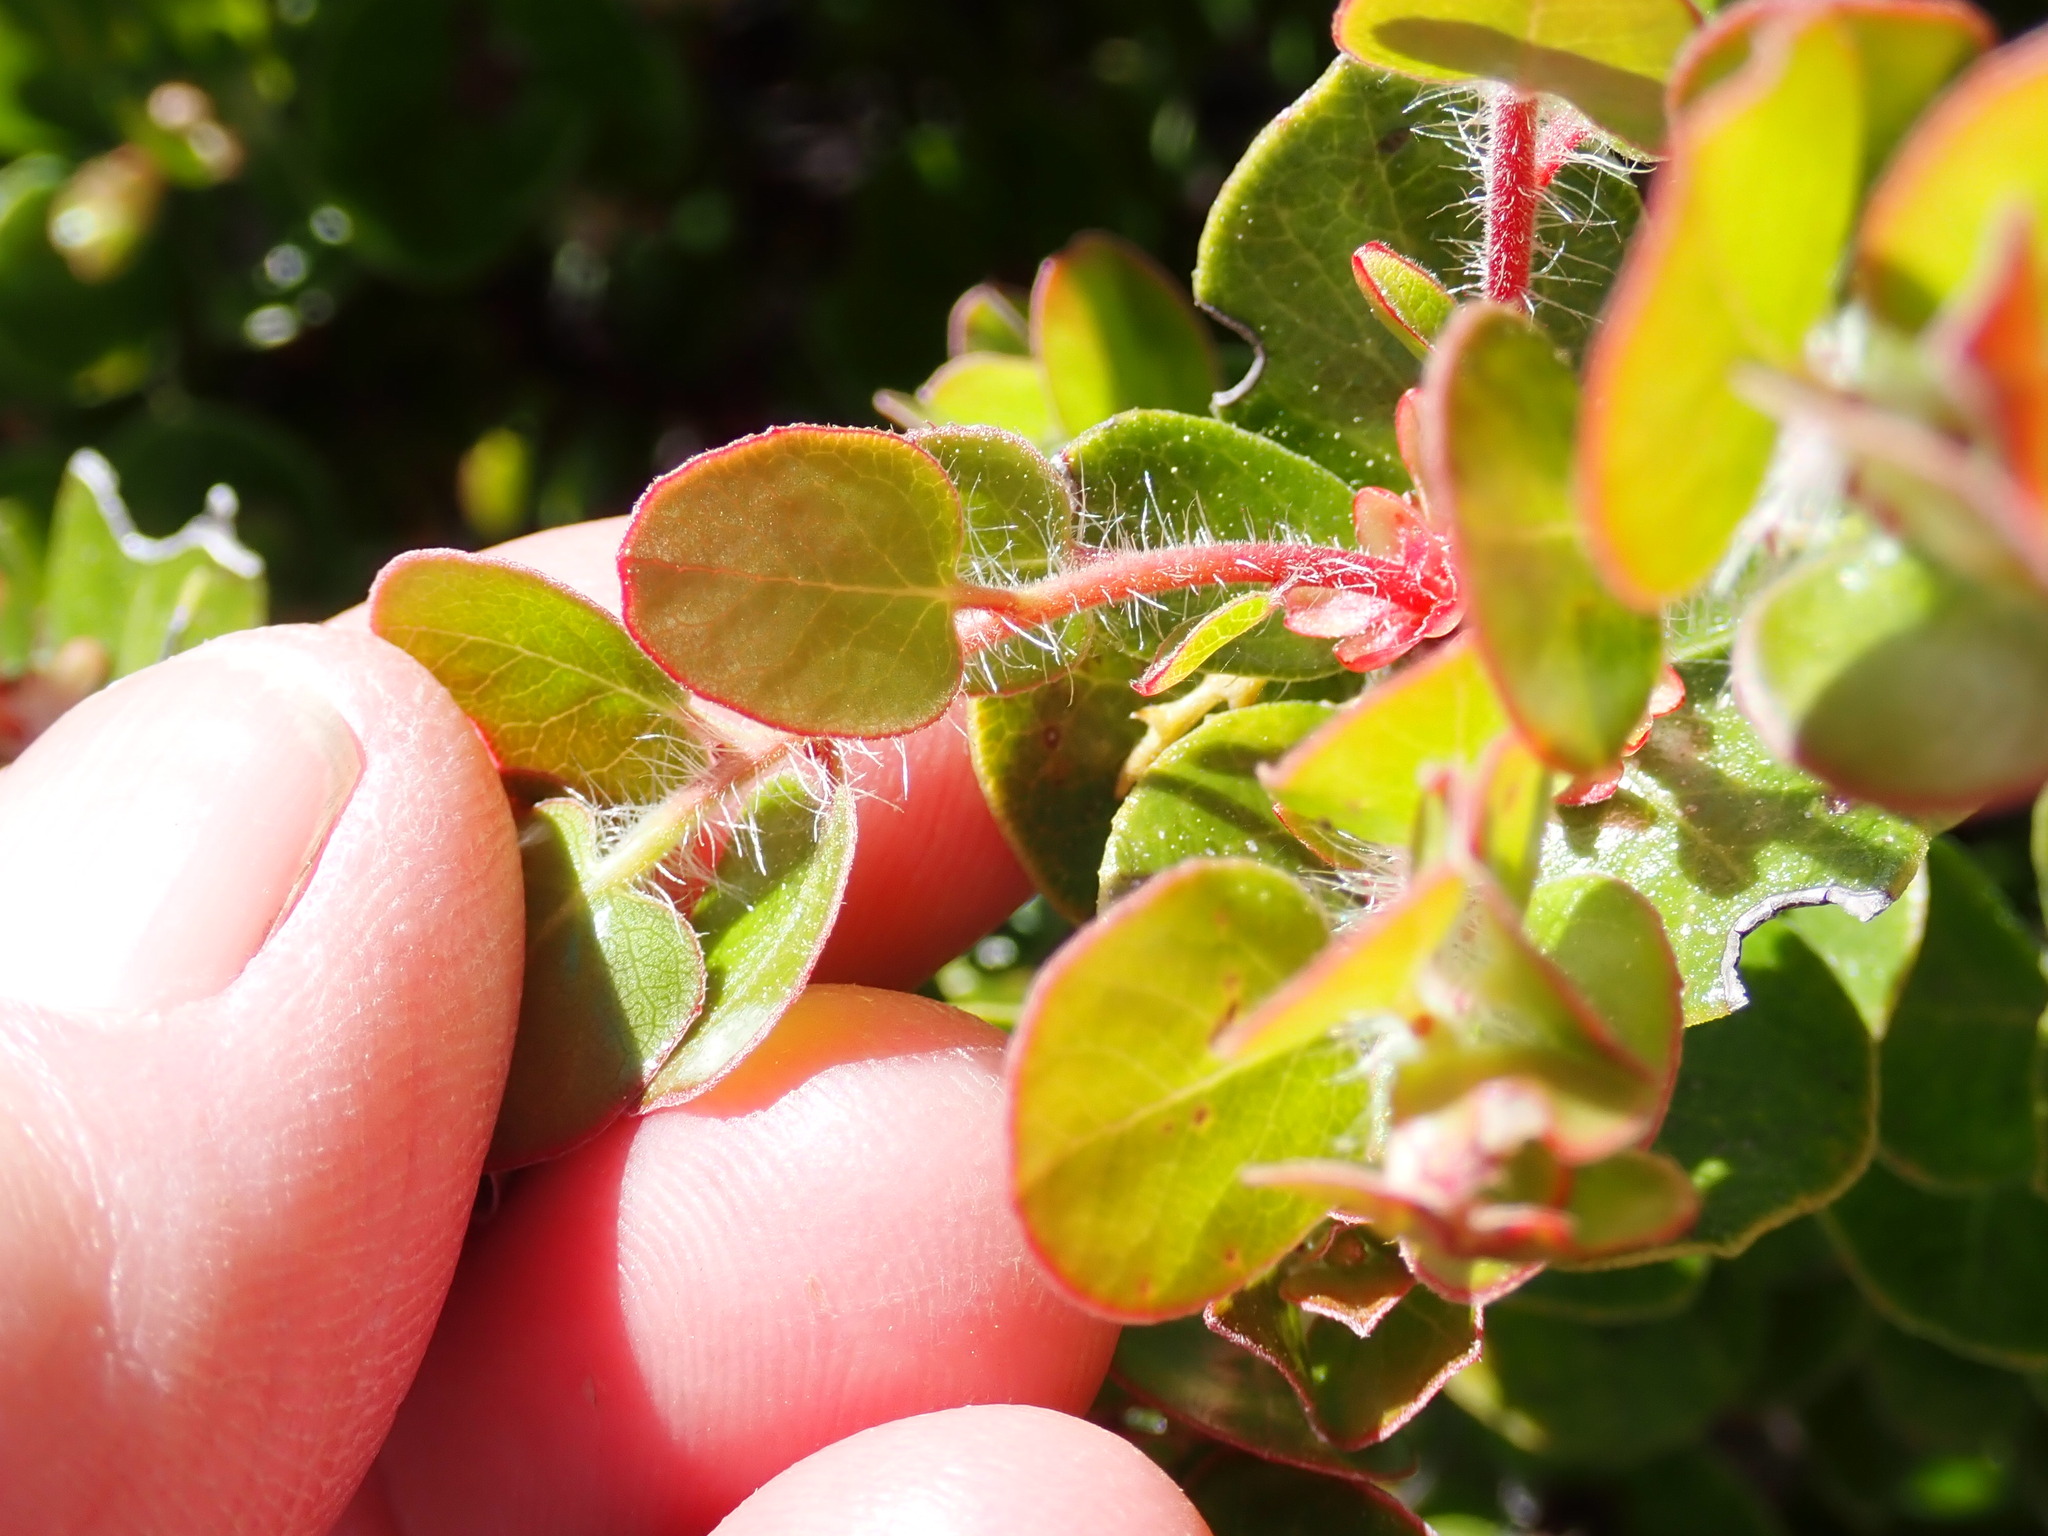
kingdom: Plantae
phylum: Tracheophyta
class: Magnoliopsida
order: Ericales
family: Ericaceae
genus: Arctostaphylos
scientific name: Arctostaphylos nummularia
